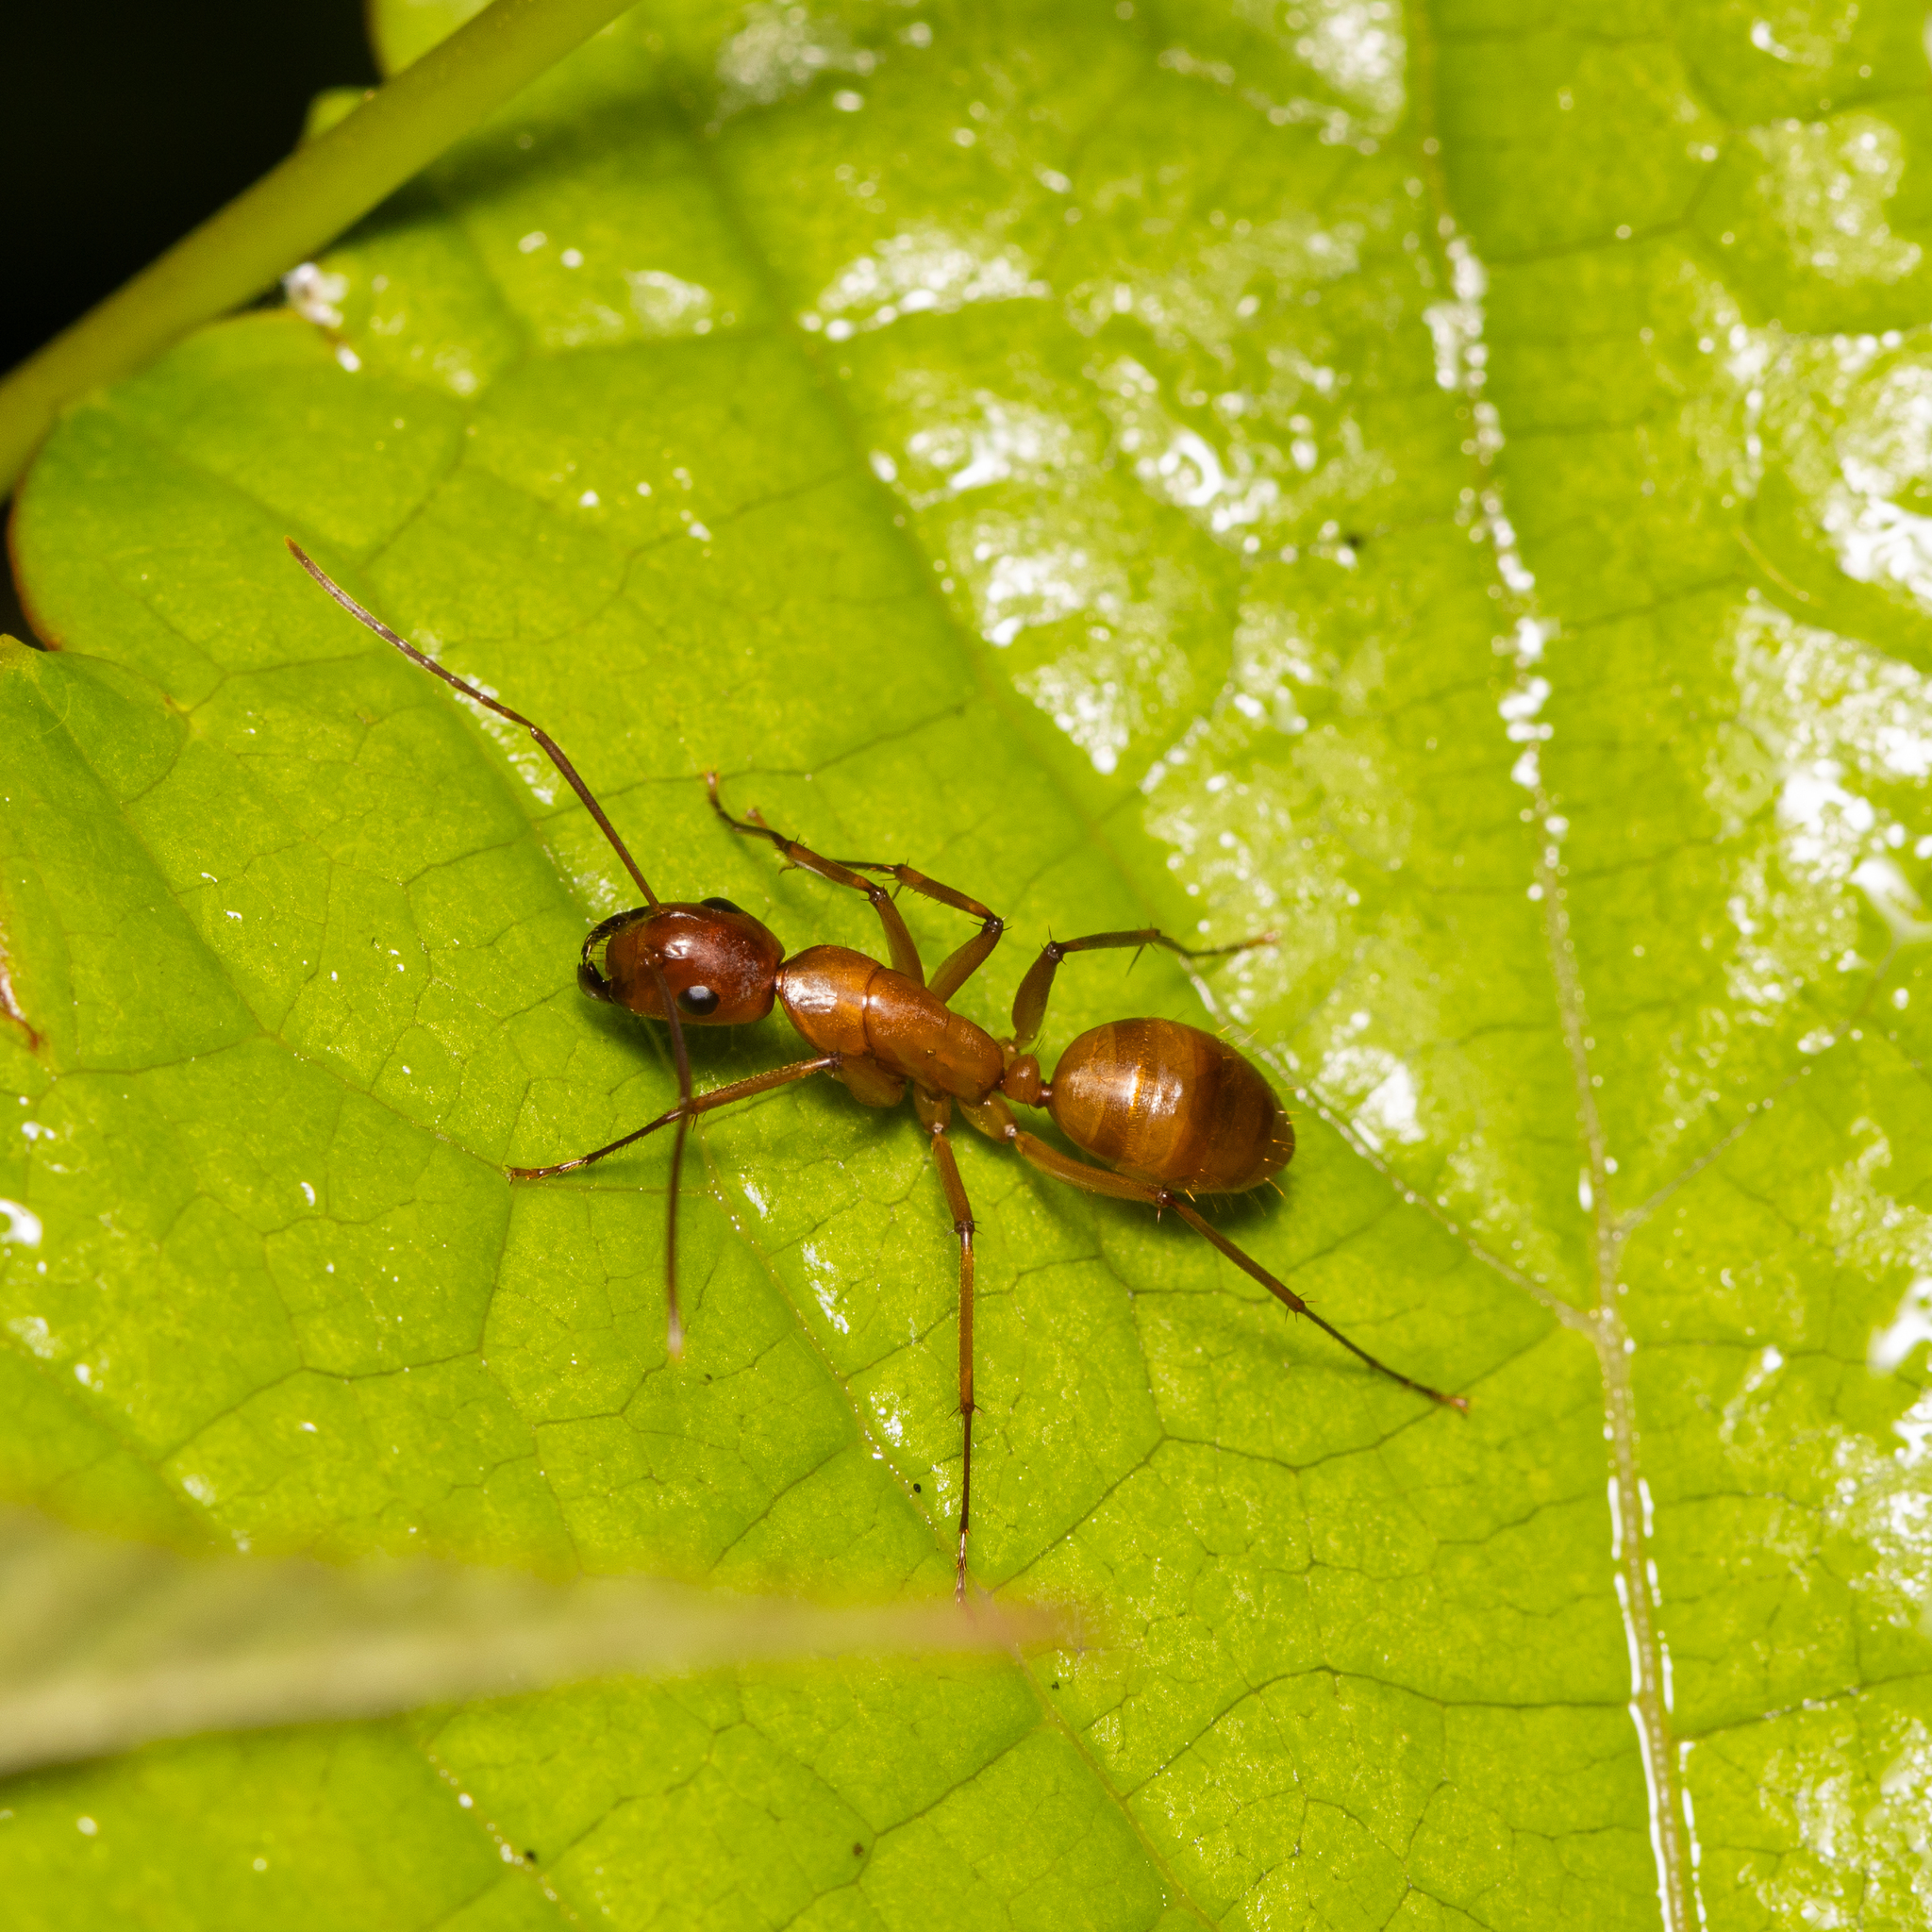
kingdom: Animalia
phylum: Arthropoda
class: Insecta
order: Hymenoptera
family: Formicidae
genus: Camponotus
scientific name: Camponotus castaneus
